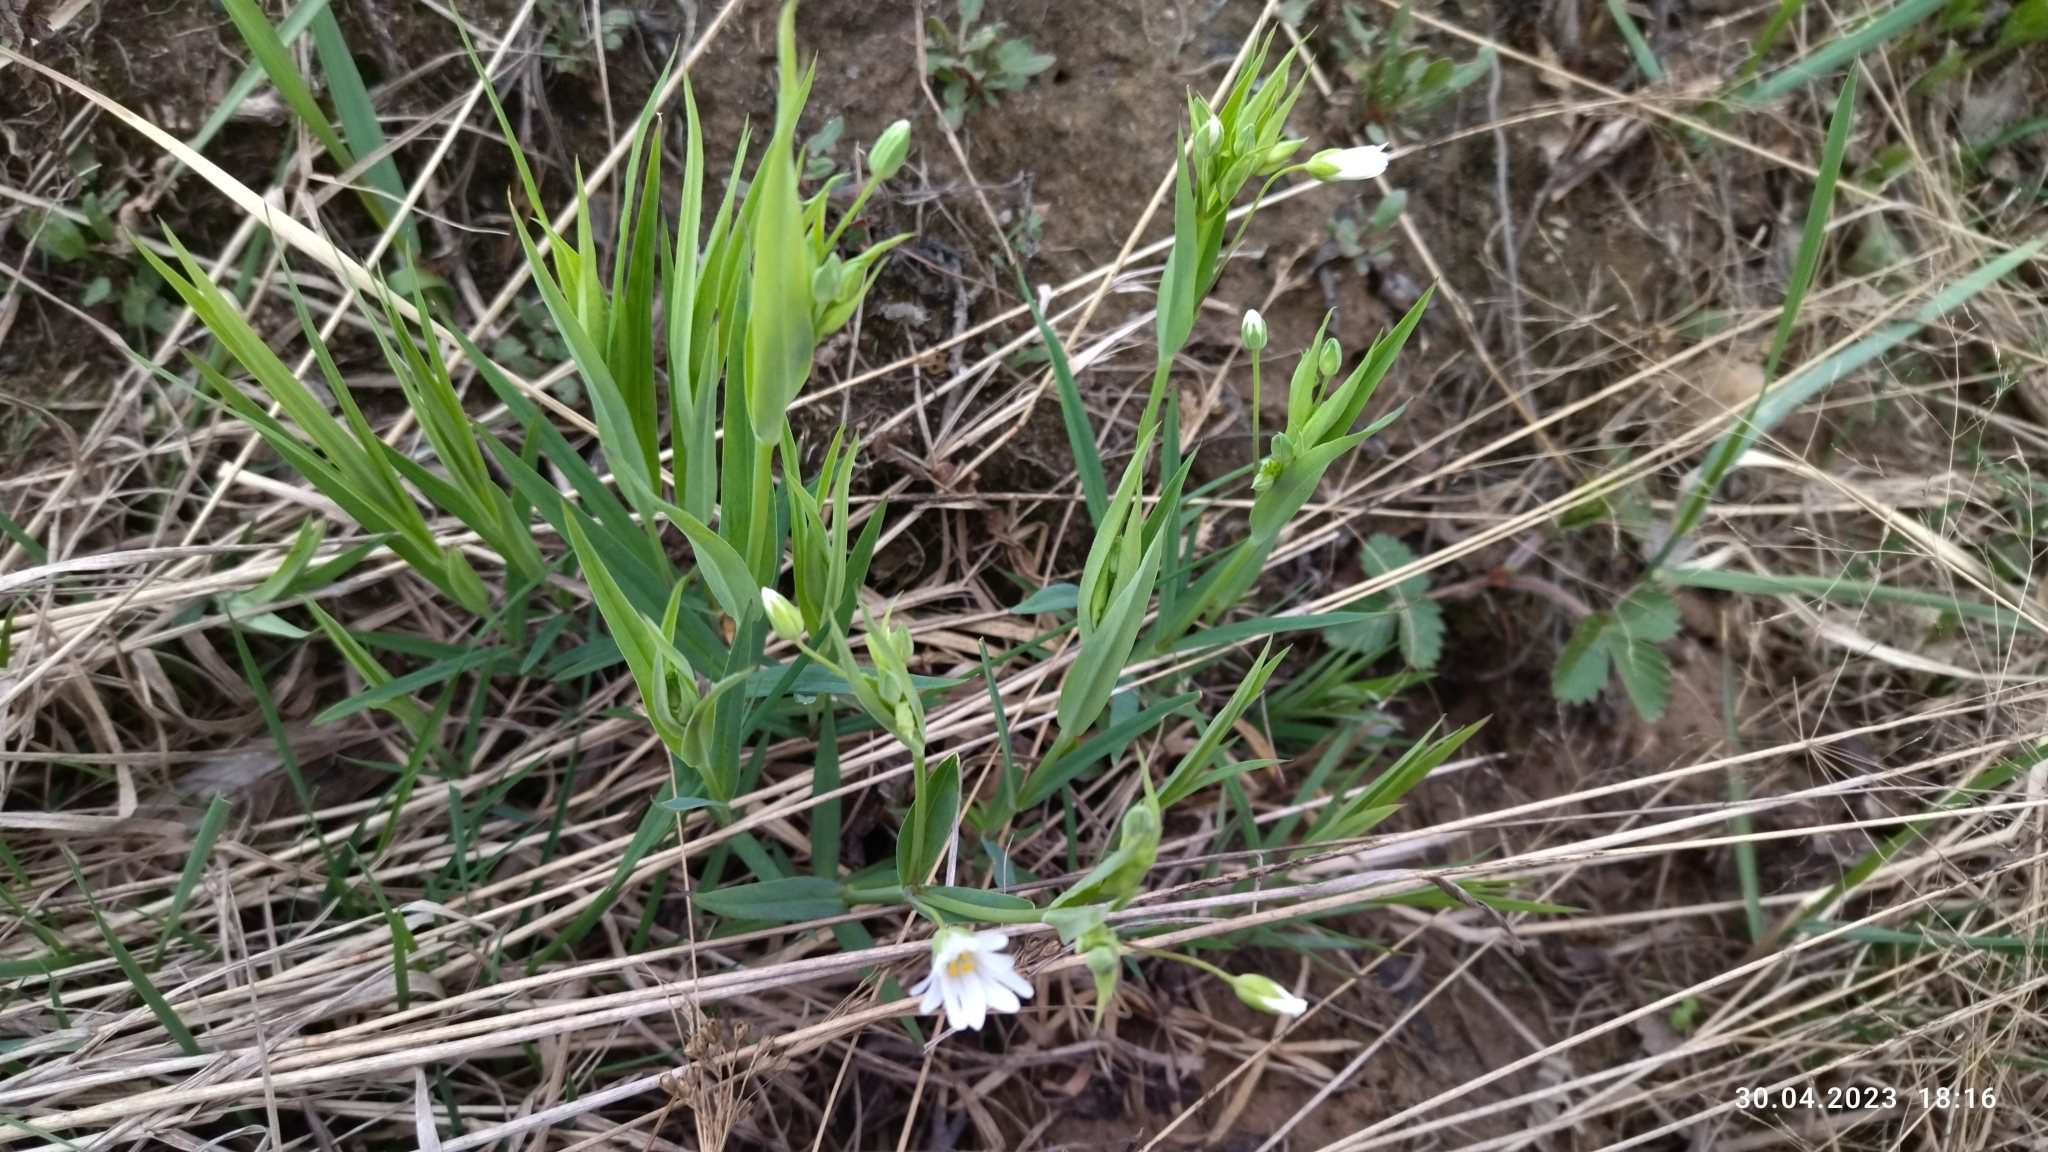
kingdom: Plantae
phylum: Tracheophyta
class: Magnoliopsida
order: Caryophyllales
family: Caryophyllaceae
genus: Rabelera
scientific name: Rabelera holostea
